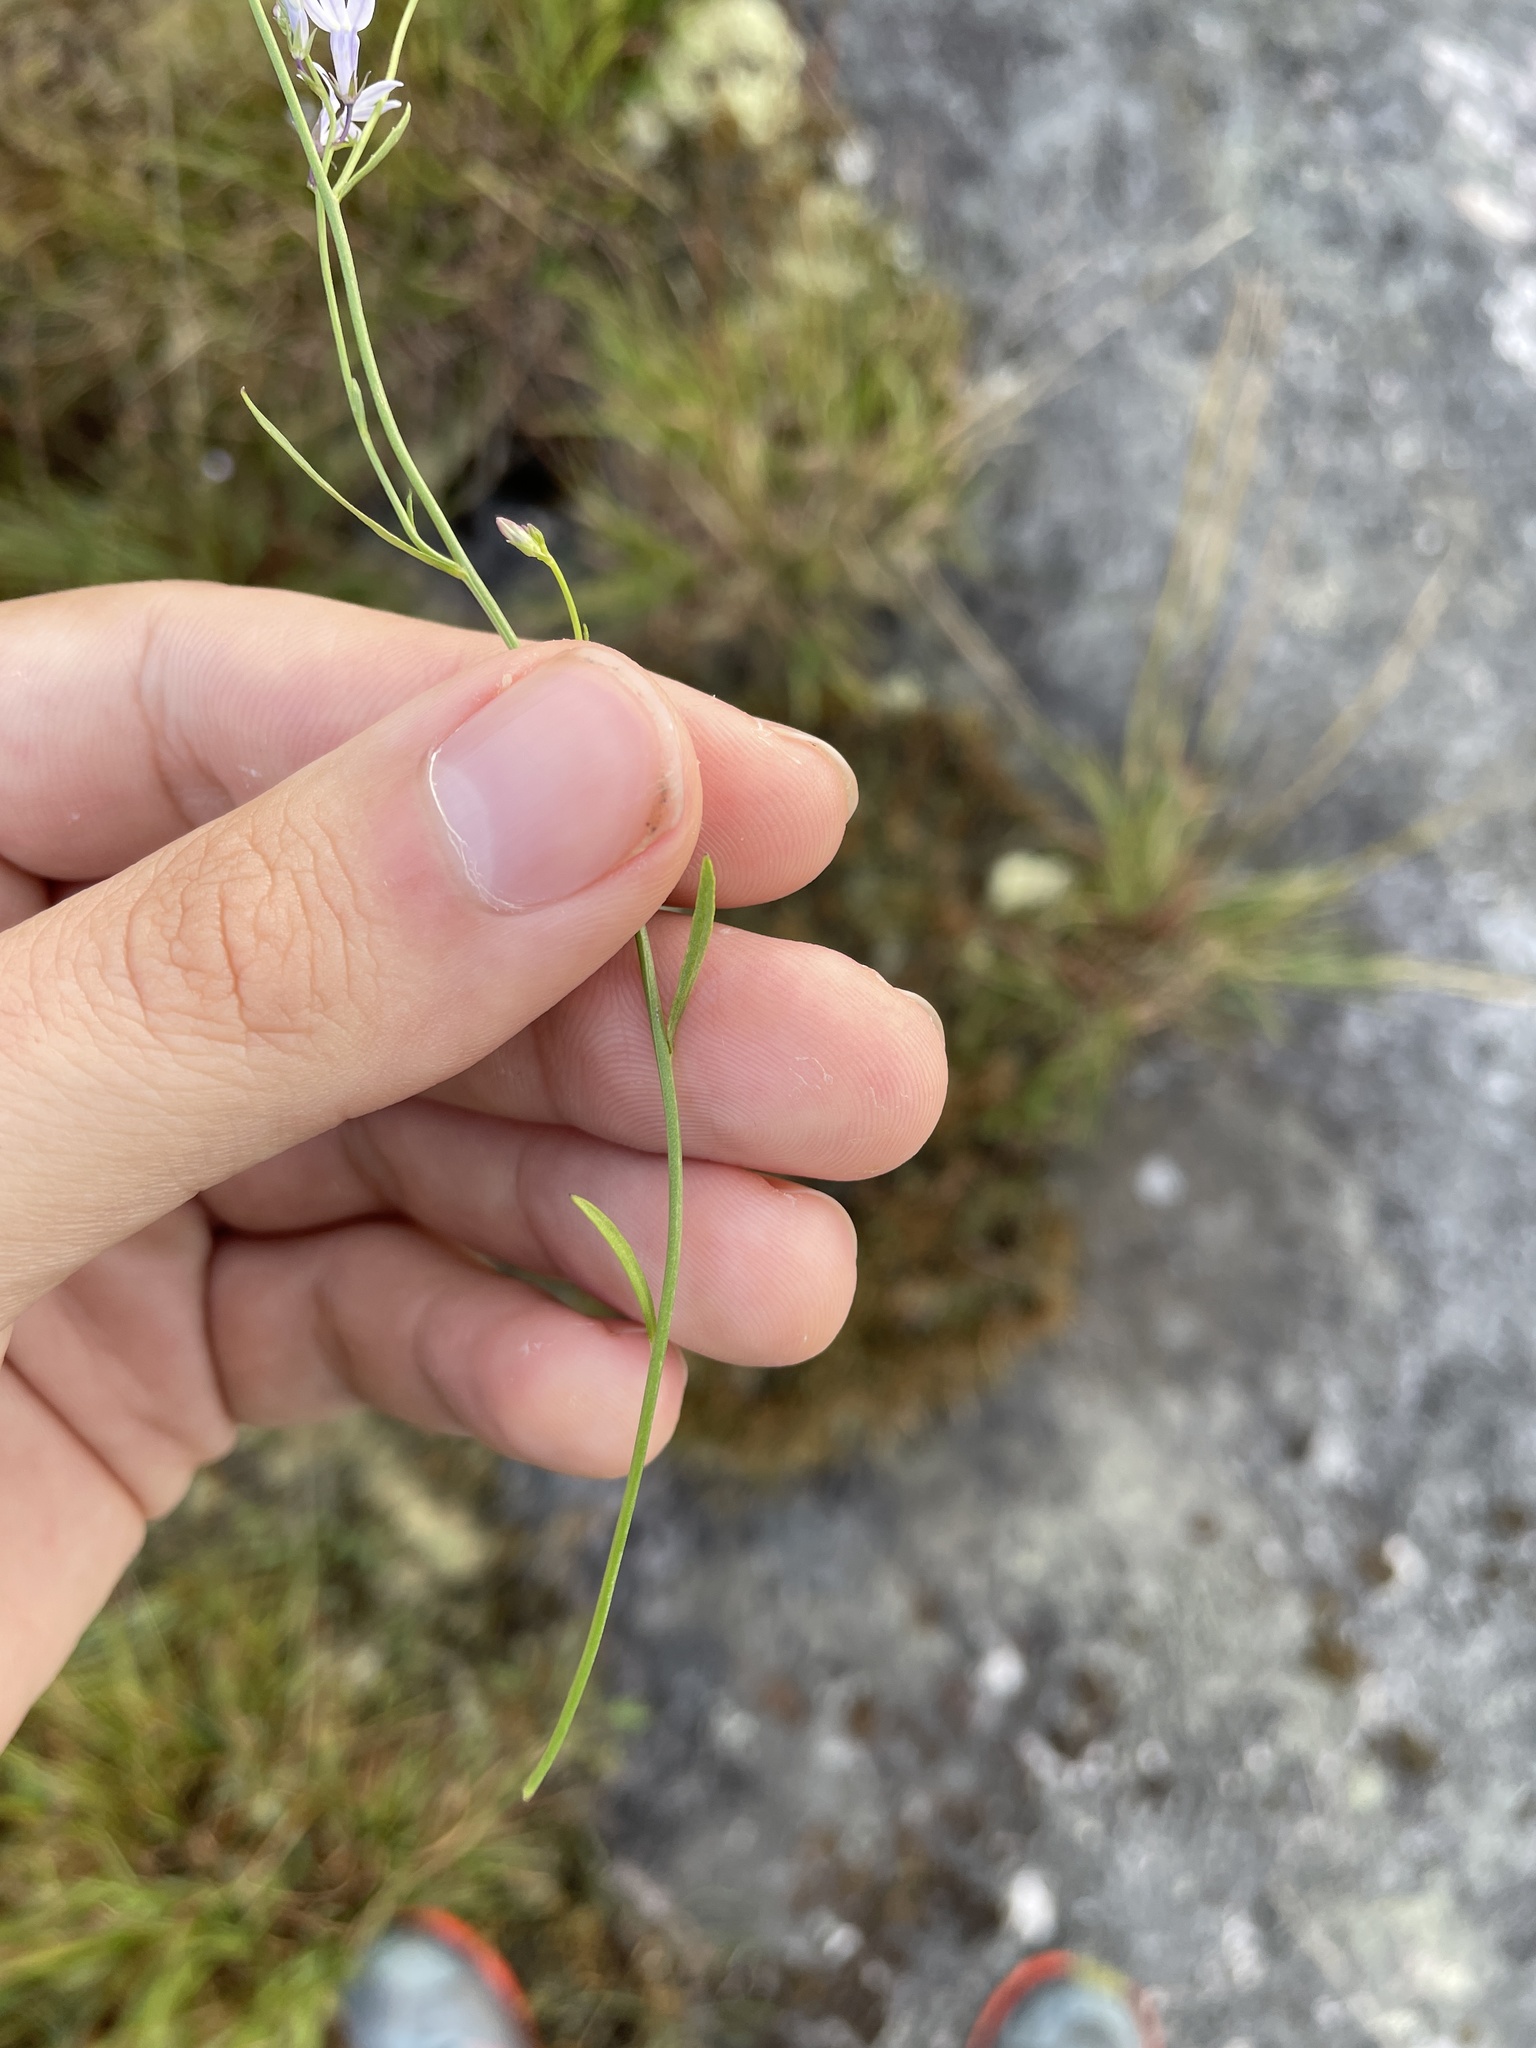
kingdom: Plantae
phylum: Tracheophyta
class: Magnoliopsida
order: Asterales
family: Campanulaceae
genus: Lobelia
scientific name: Lobelia nuttallii
